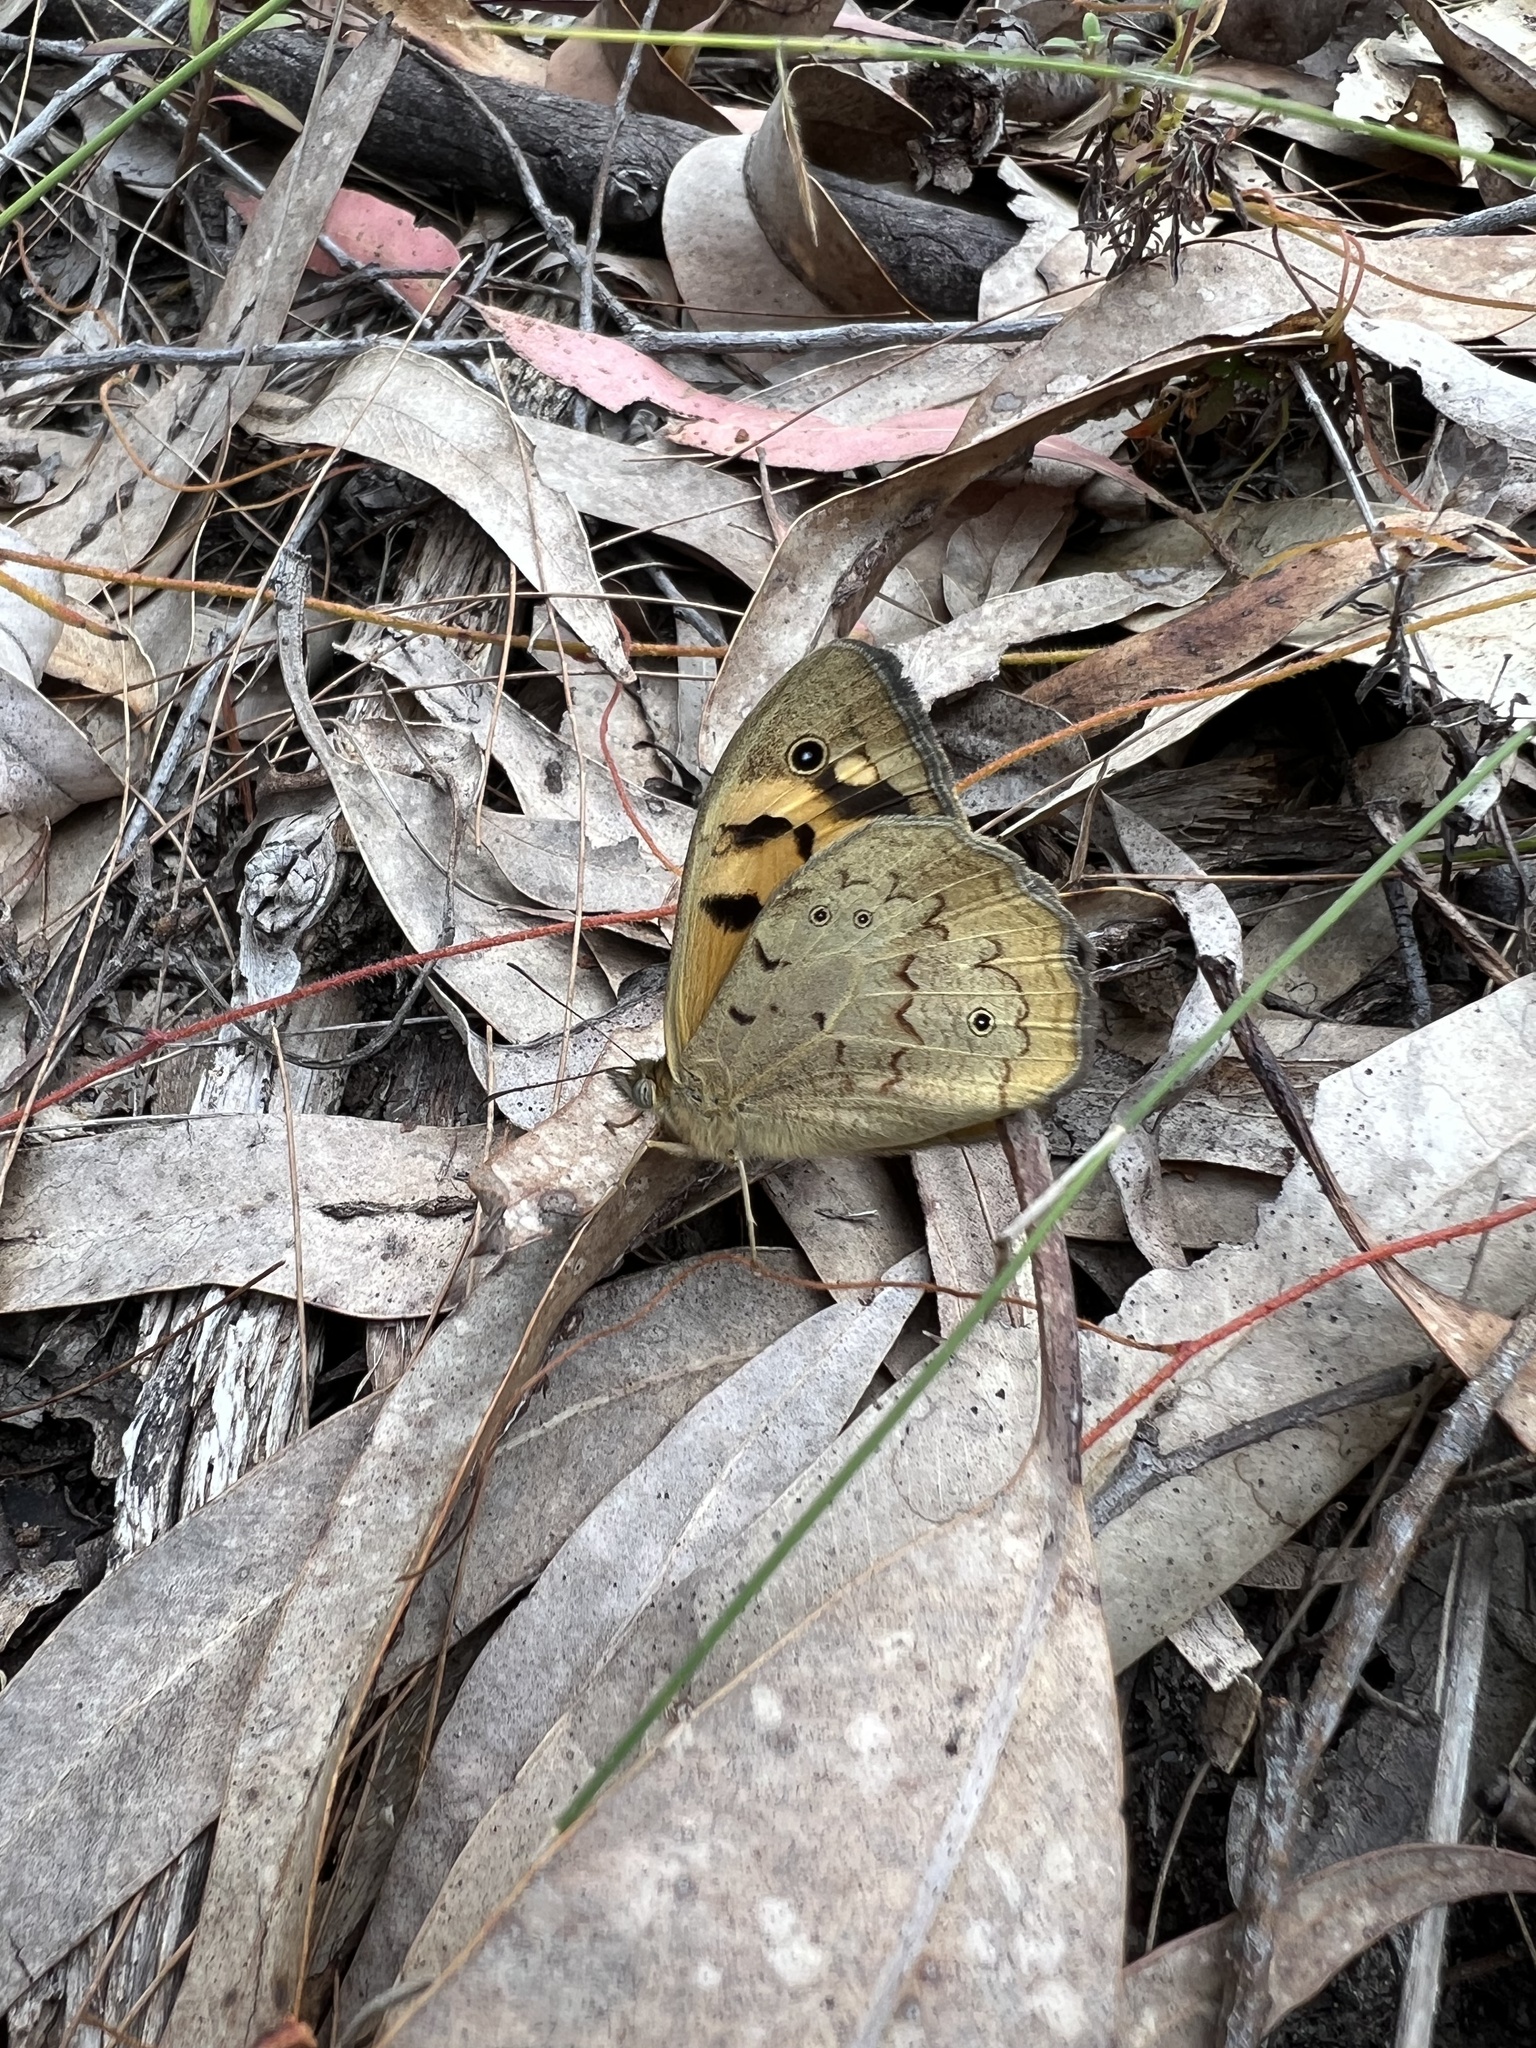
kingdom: Animalia
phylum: Arthropoda
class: Insecta
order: Lepidoptera
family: Nymphalidae
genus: Heteronympha
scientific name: Heteronympha merope
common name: Common brown
